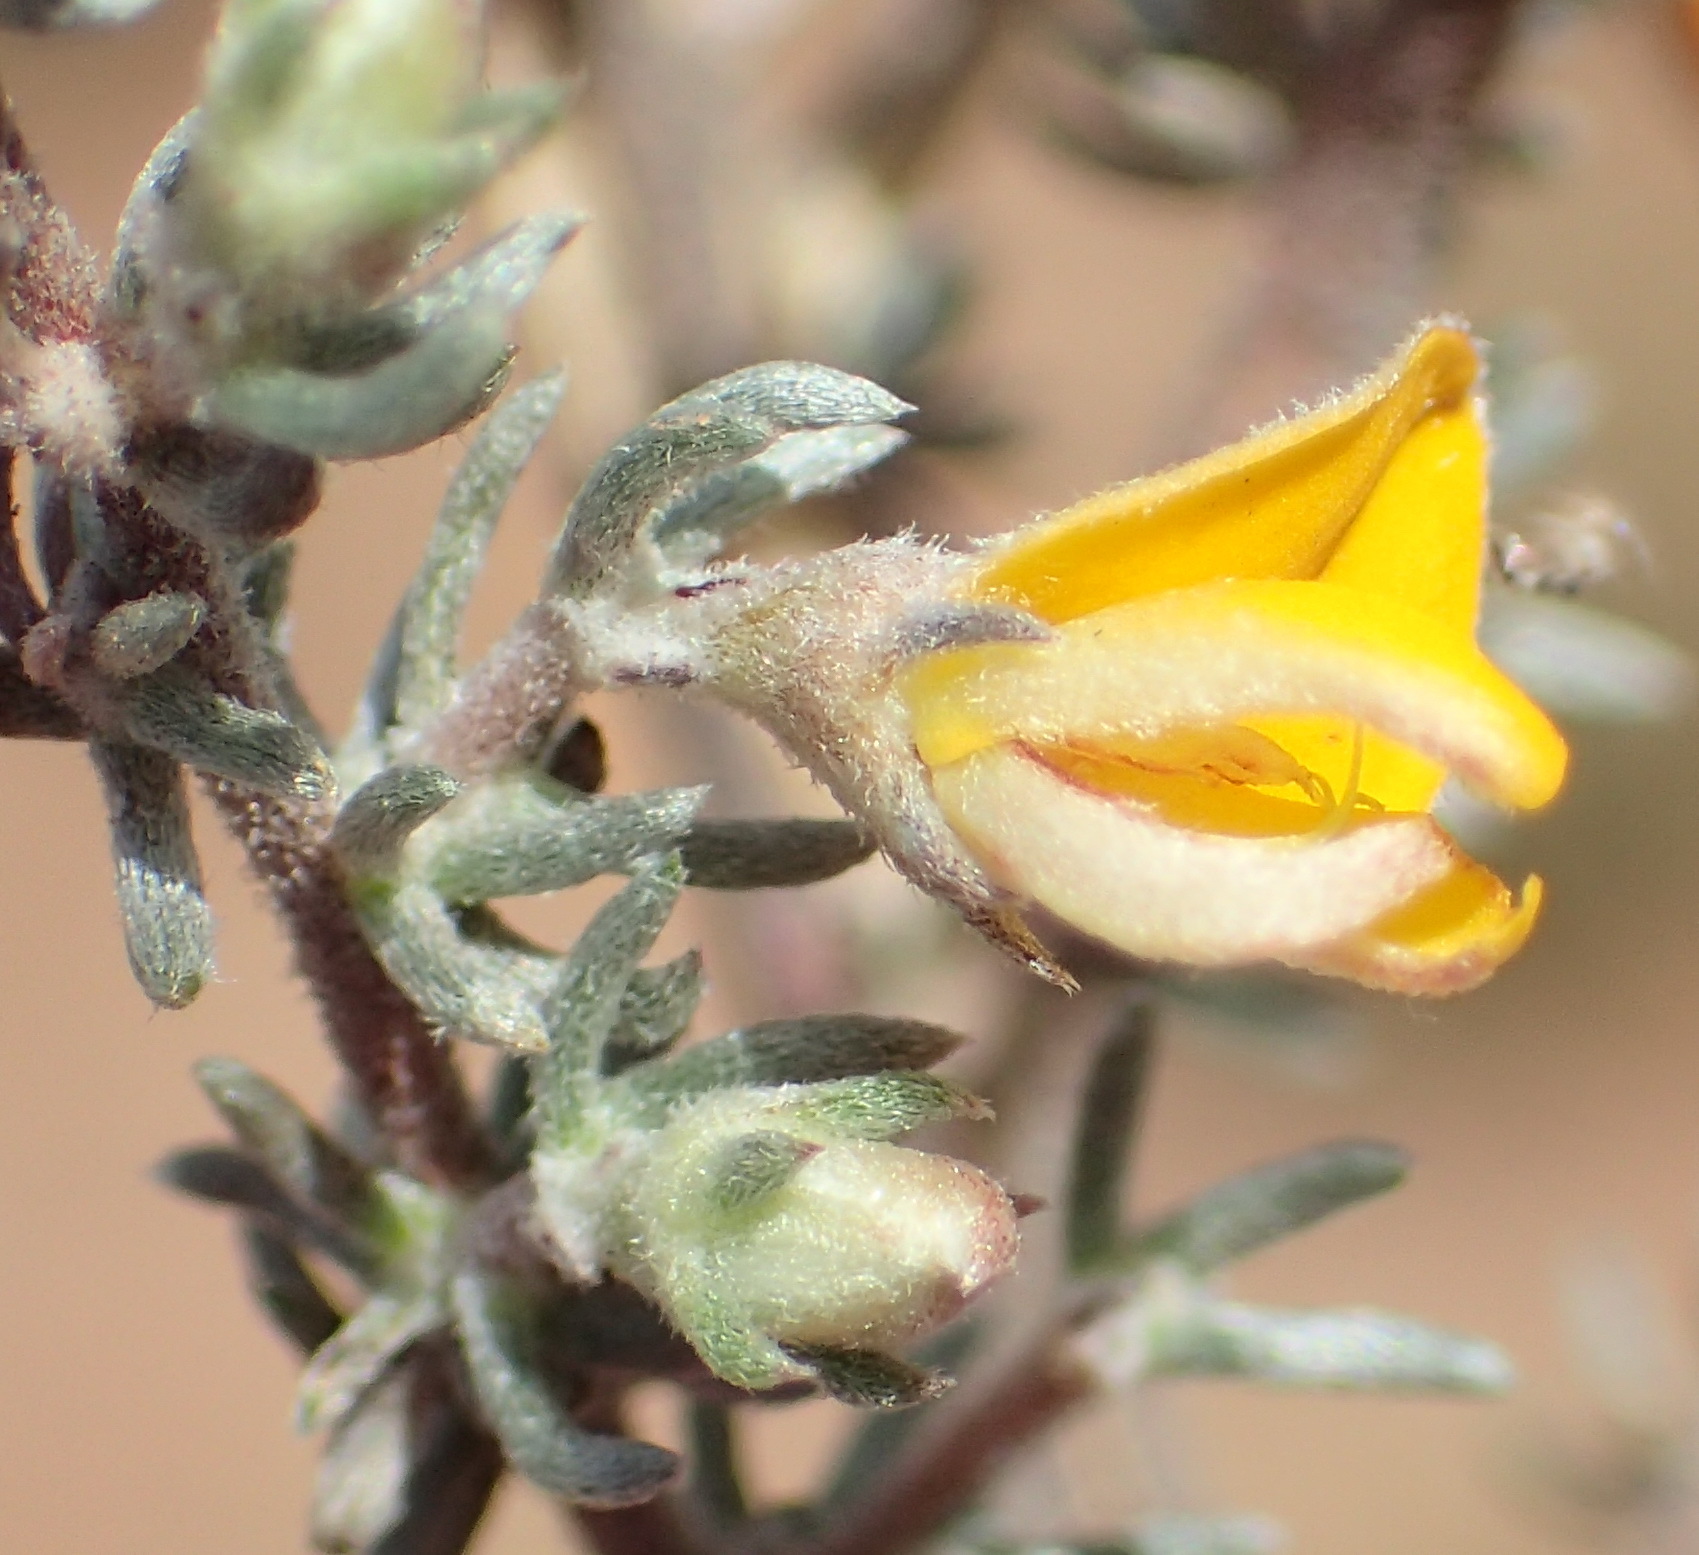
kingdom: Plantae
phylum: Tracheophyta
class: Magnoliopsida
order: Fabales
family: Fabaceae
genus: Aspalathus
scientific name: Aspalathus rubens
